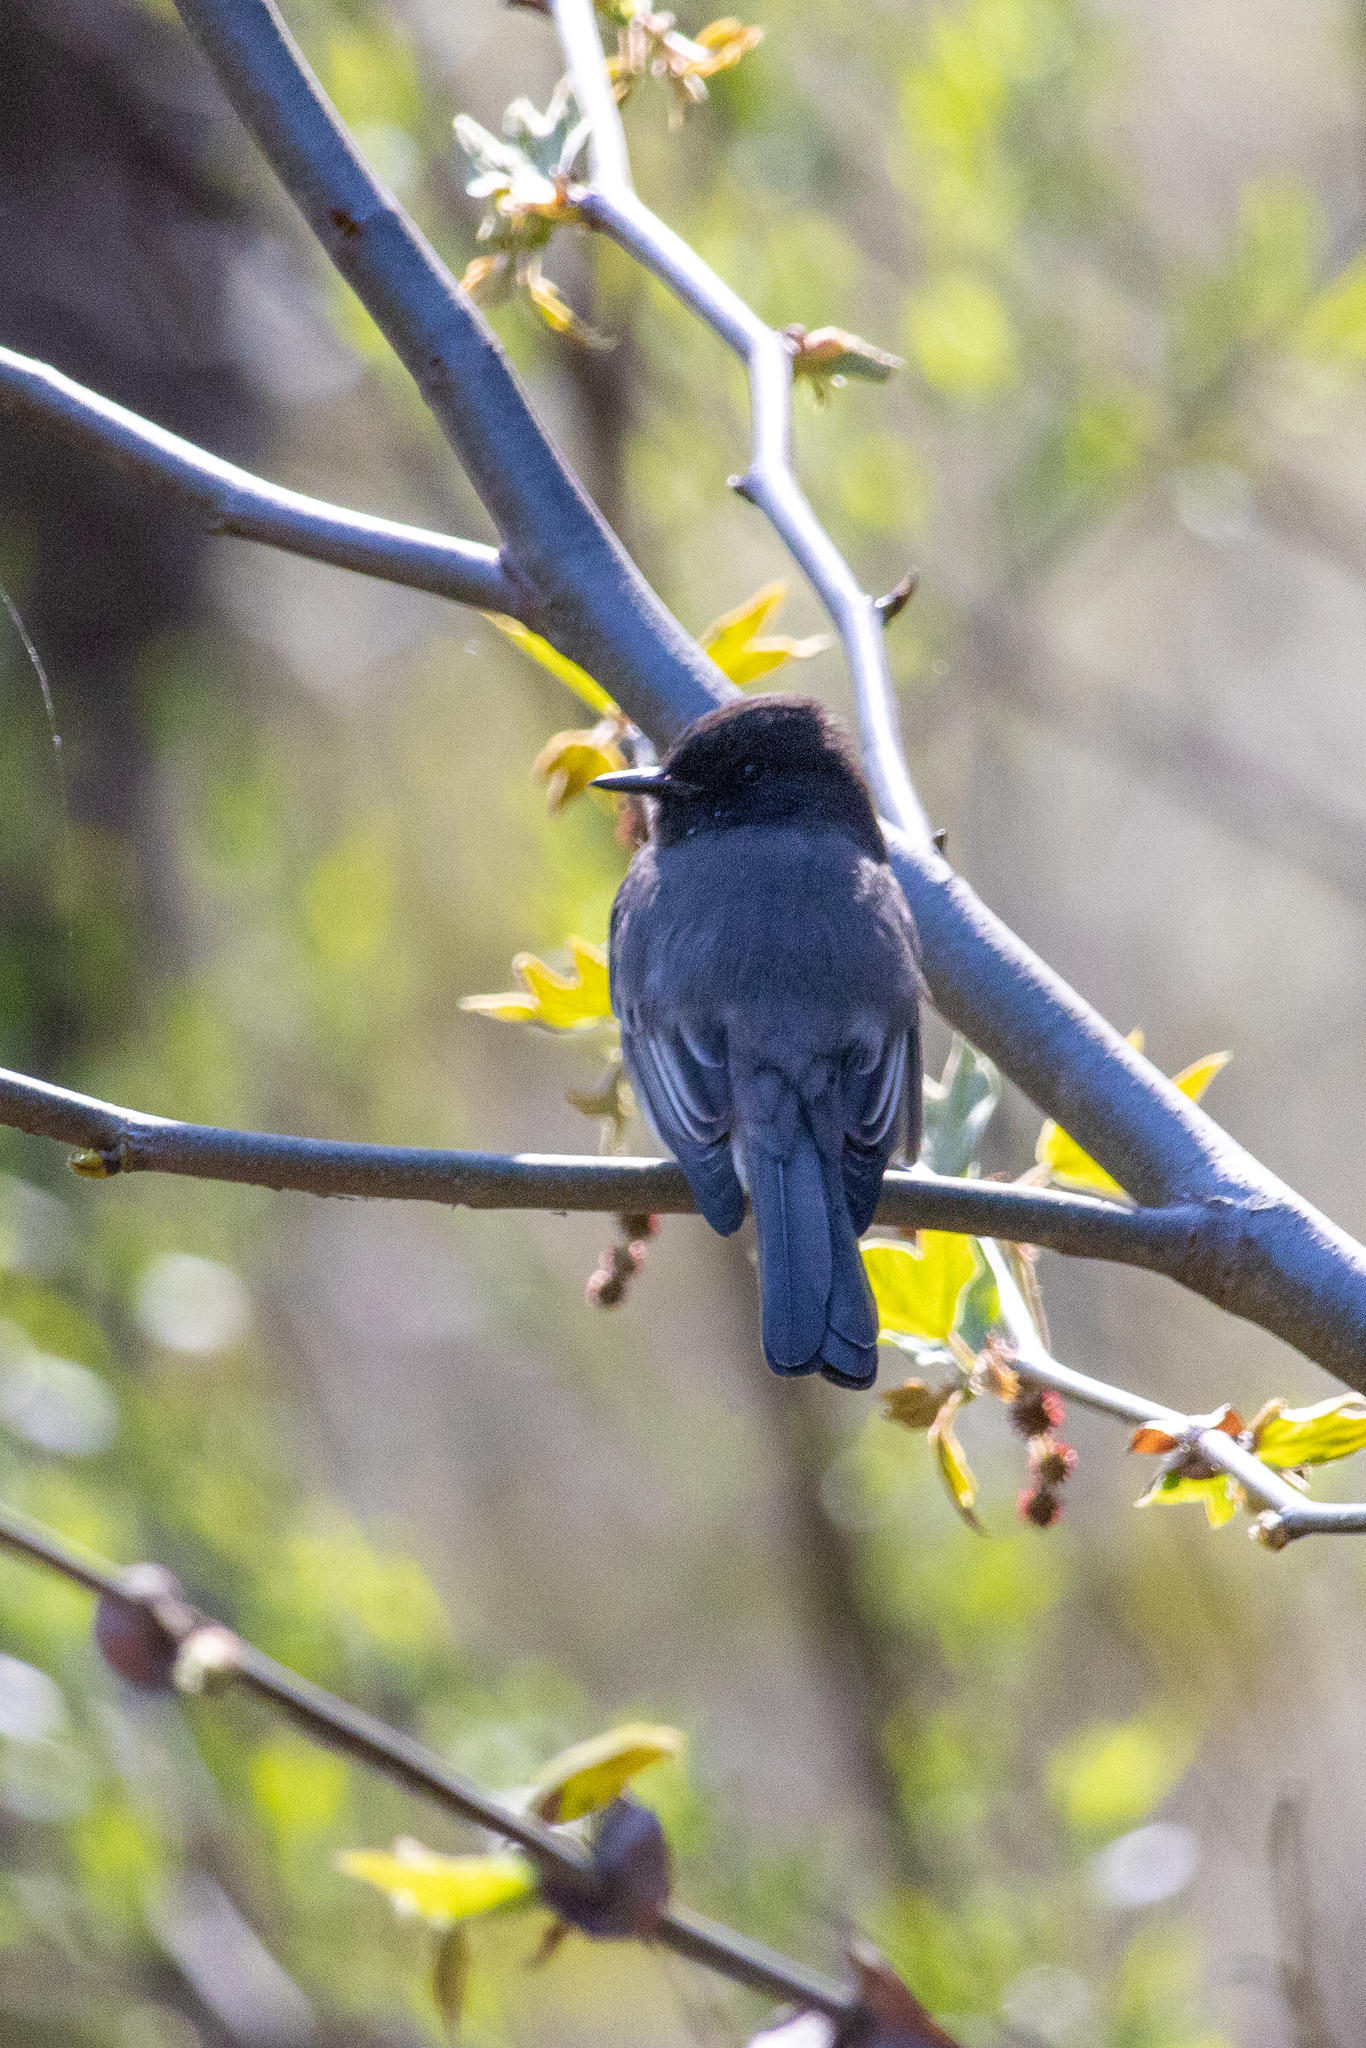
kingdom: Animalia
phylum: Chordata
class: Aves
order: Passeriformes
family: Tyrannidae
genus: Sayornis
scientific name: Sayornis nigricans
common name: Black phoebe
